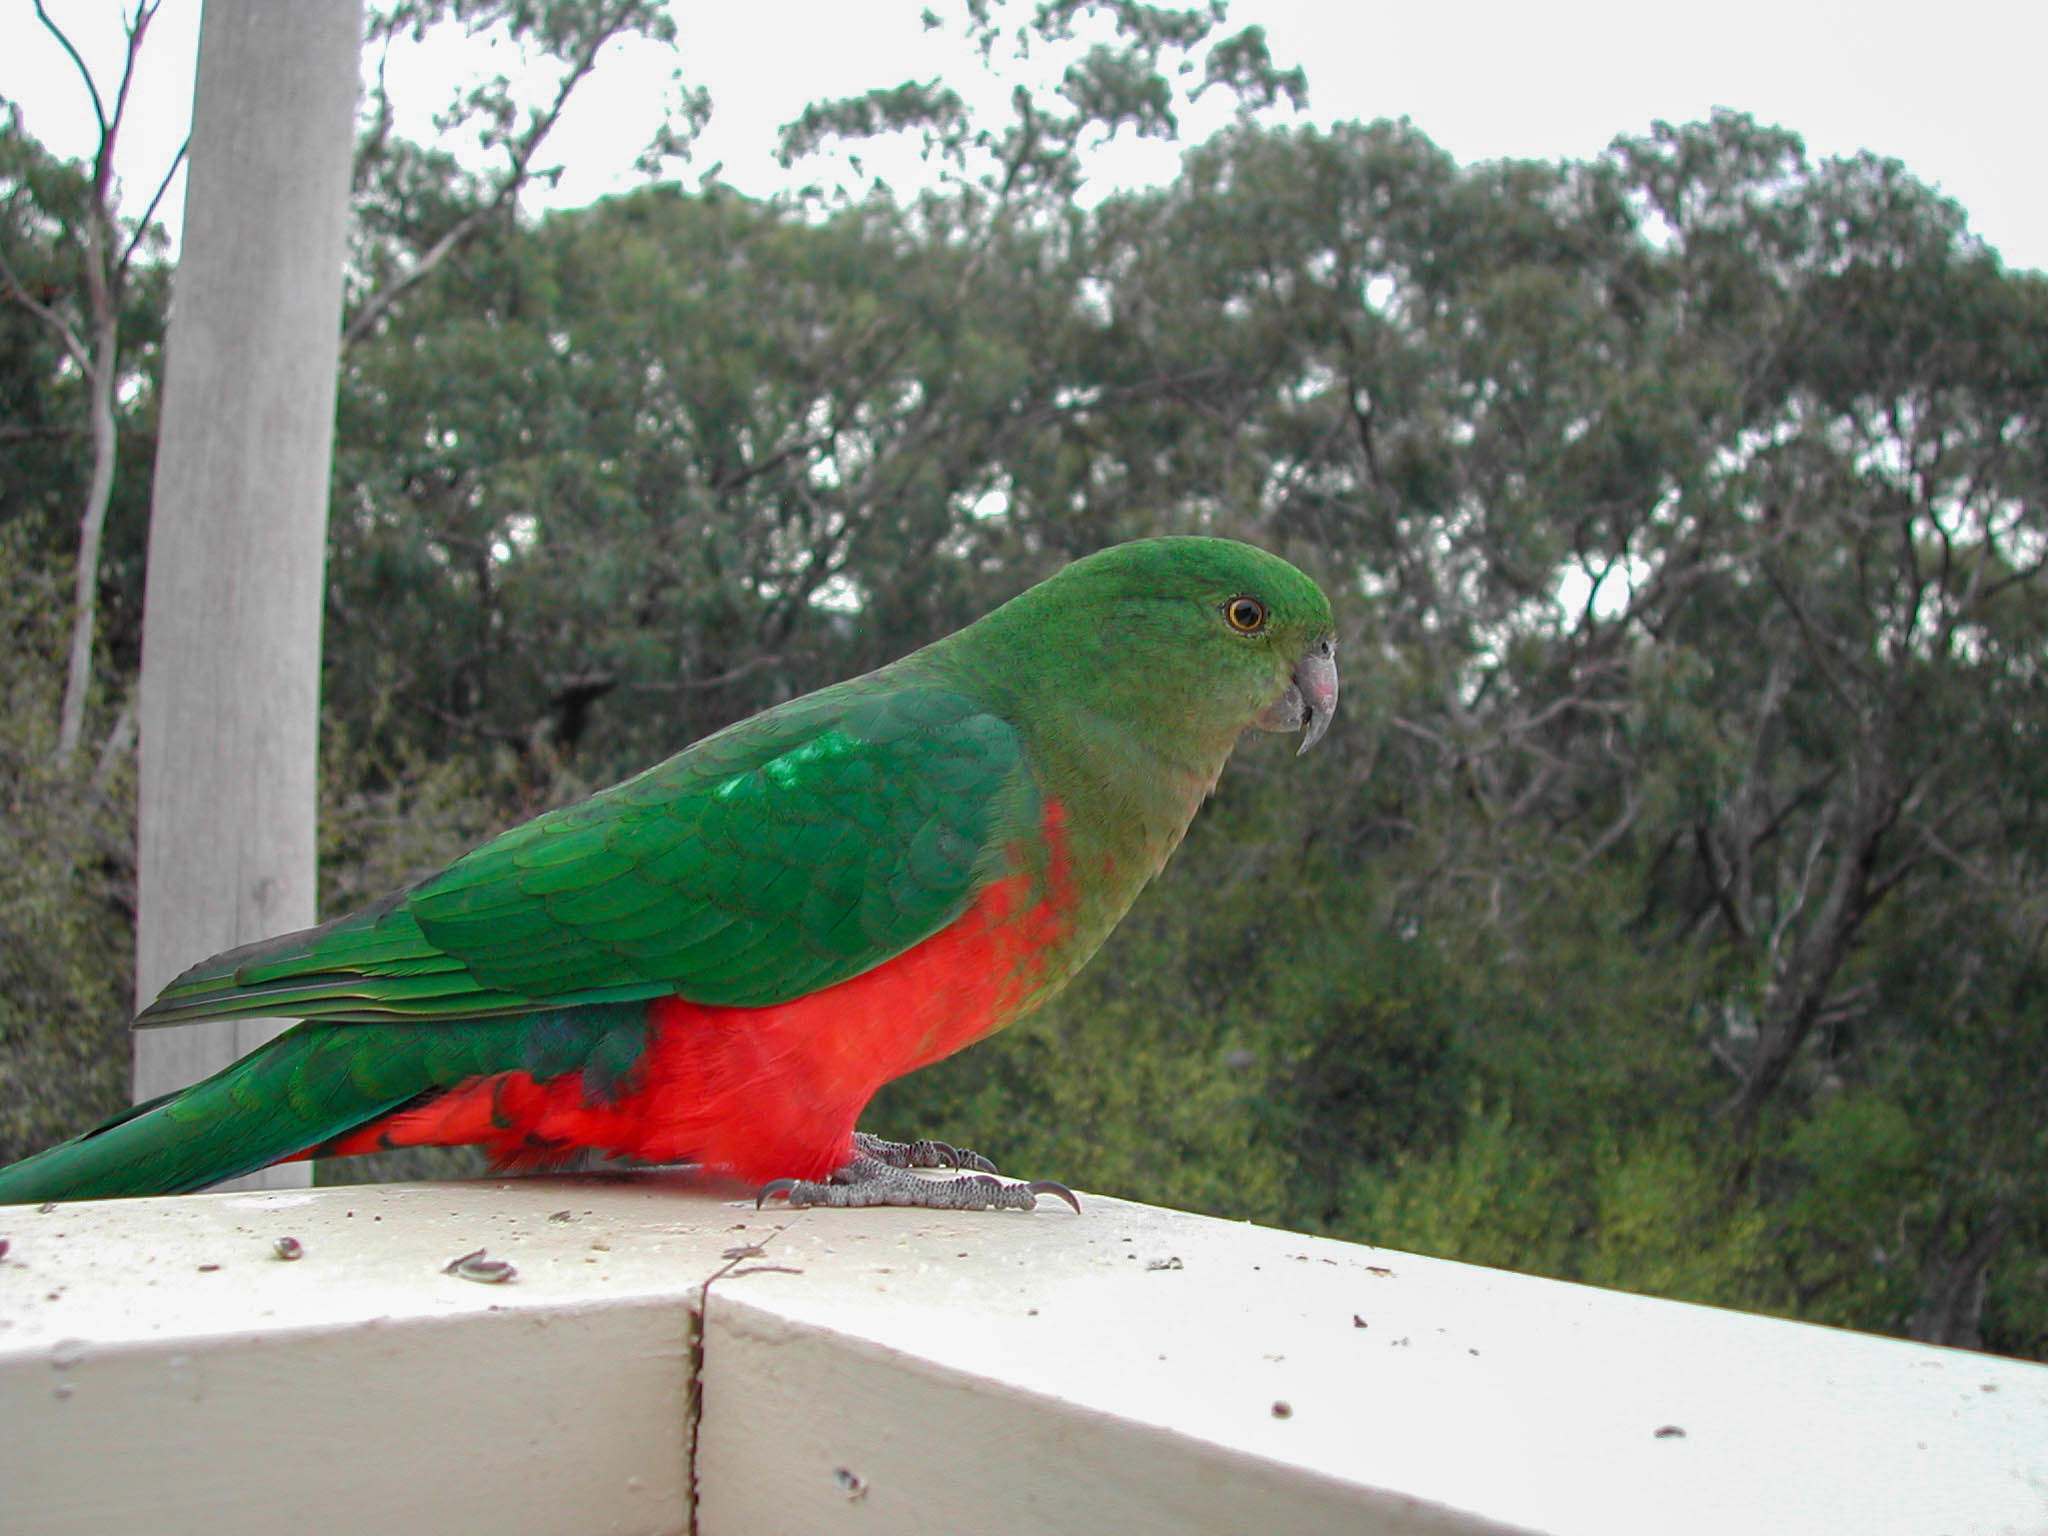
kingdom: Animalia
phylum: Chordata
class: Aves
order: Psittaciformes
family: Psittacidae
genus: Alisterus
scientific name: Alisterus scapularis
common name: Australian king parrot
